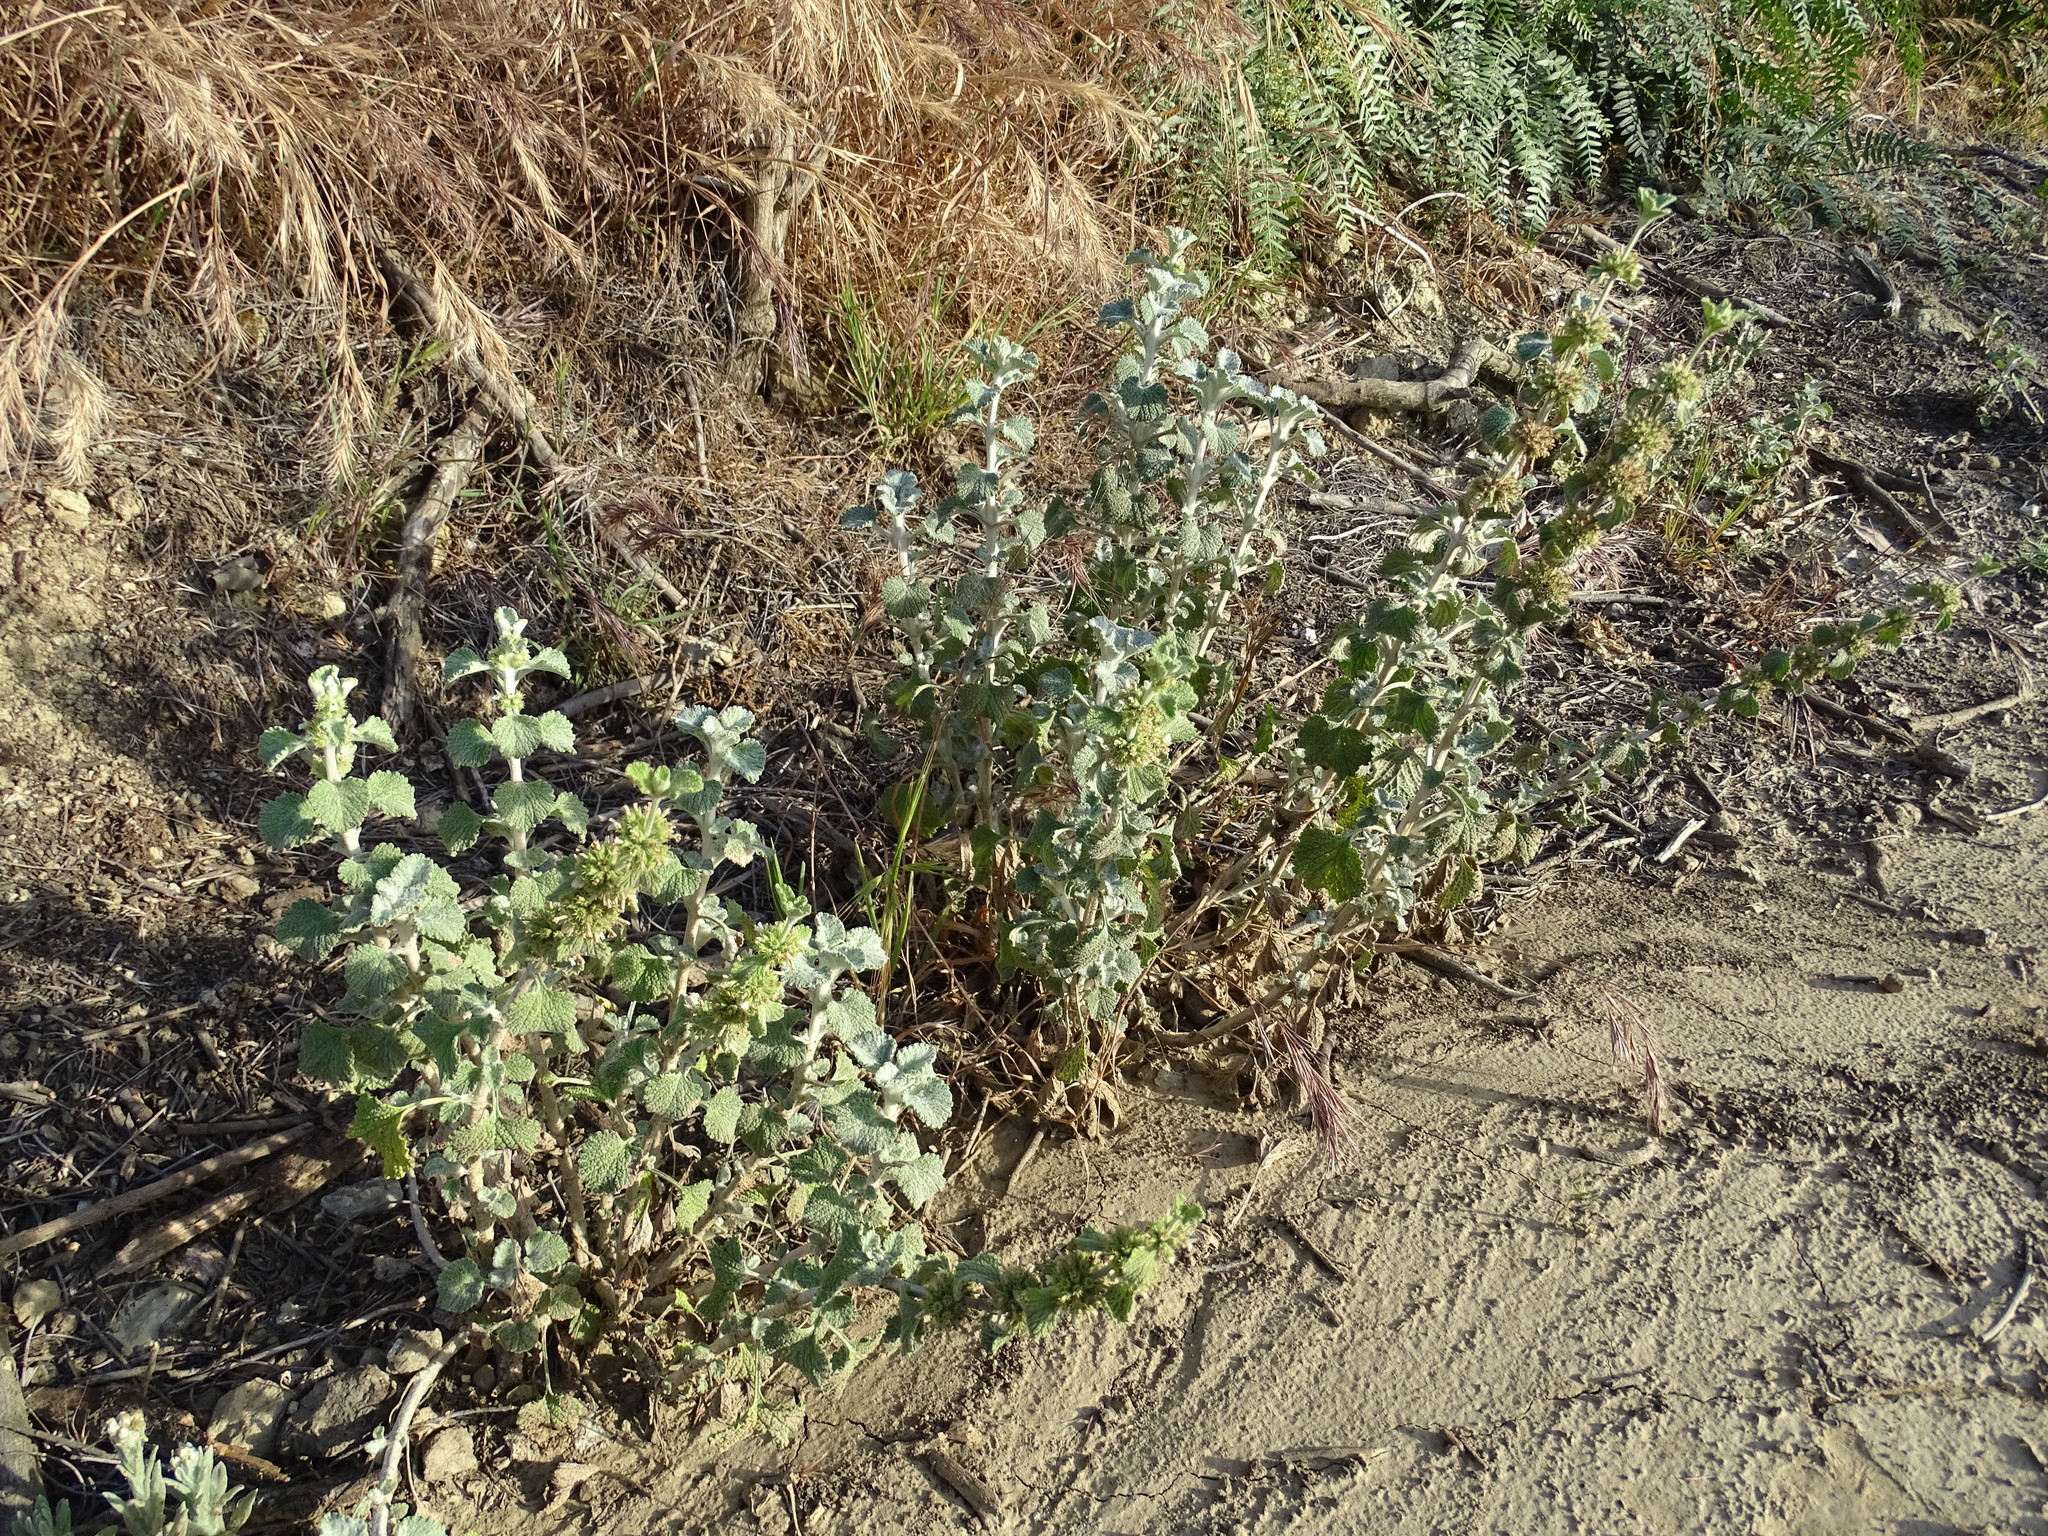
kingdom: Plantae
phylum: Tracheophyta
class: Magnoliopsida
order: Lamiales
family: Lamiaceae
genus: Marrubium
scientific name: Marrubium vulgare
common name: Horehound
